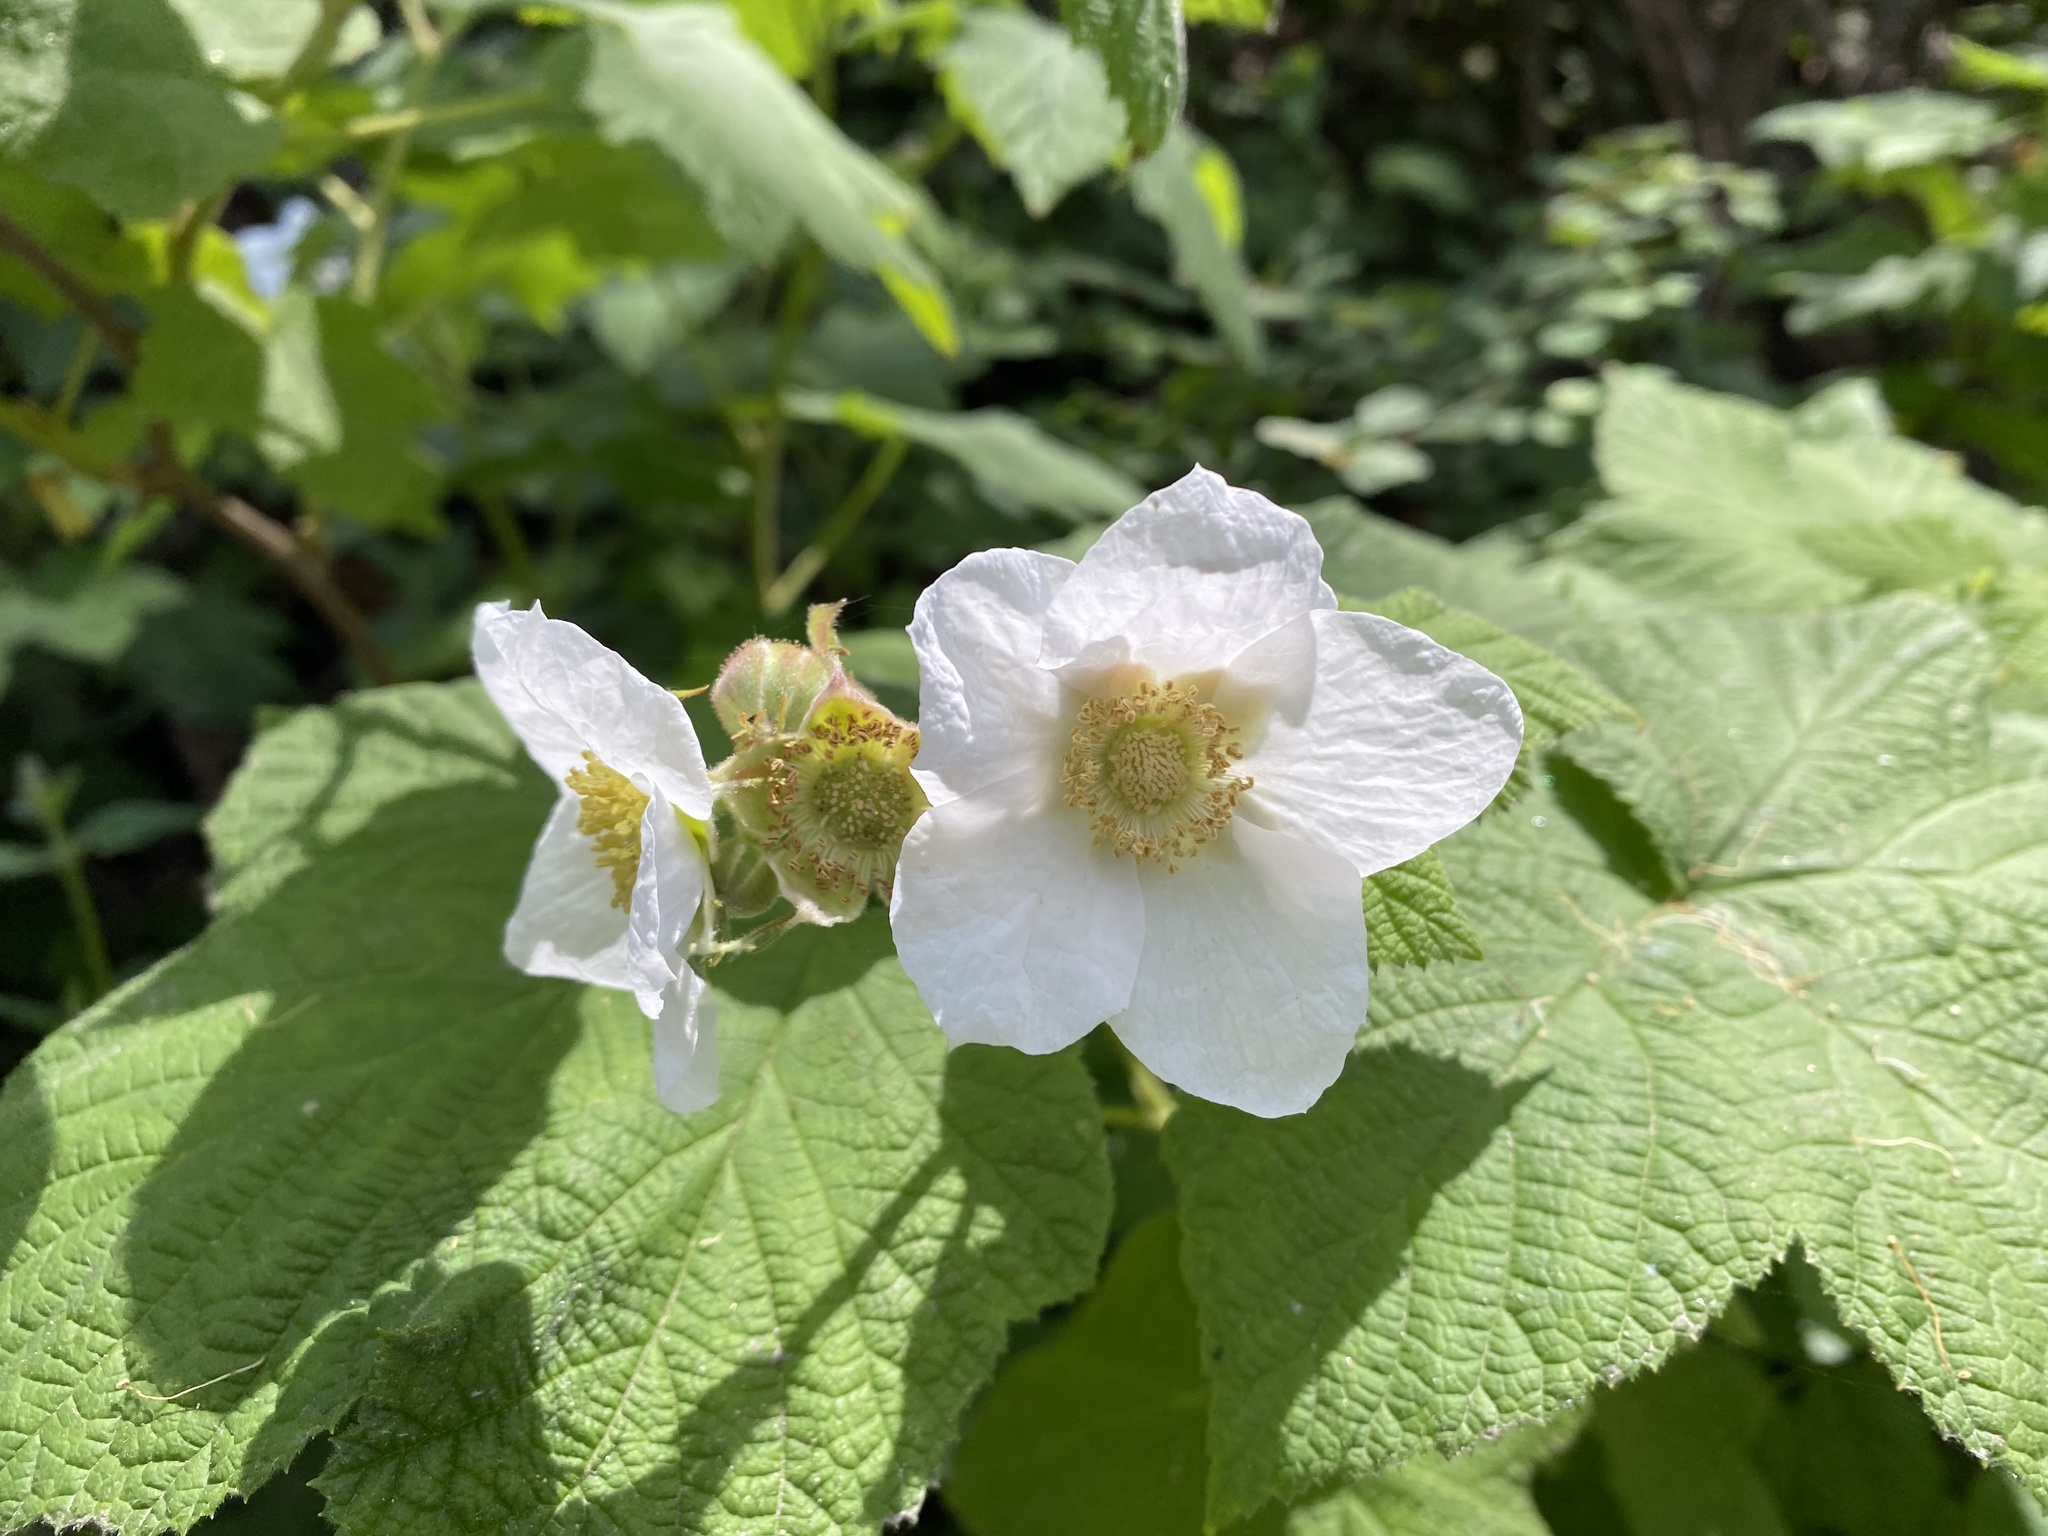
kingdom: Plantae
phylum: Tracheophyta
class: Magnoliopsida
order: Rosales
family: Rosaceae
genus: Rubus
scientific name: Rubus parviflorus
